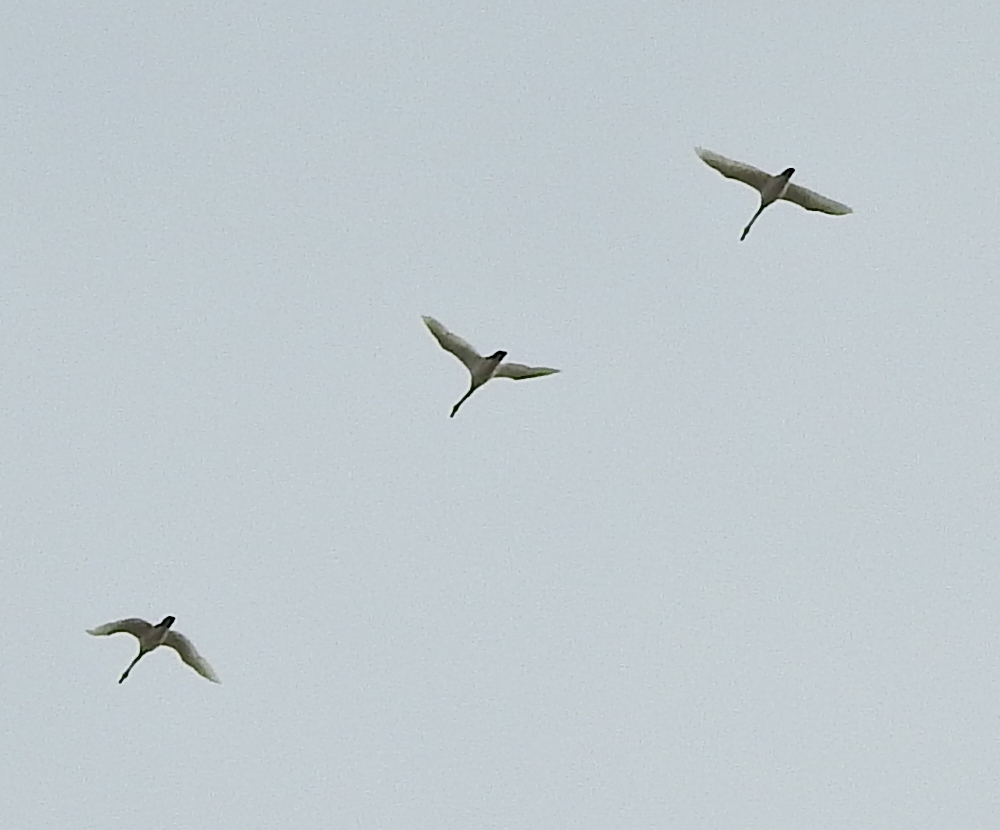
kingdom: Animalia
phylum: Chordata
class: Aves
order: Anseriformes
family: Anatidae
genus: Cygnus
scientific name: Cygnus cygnus
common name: Whooper swan
